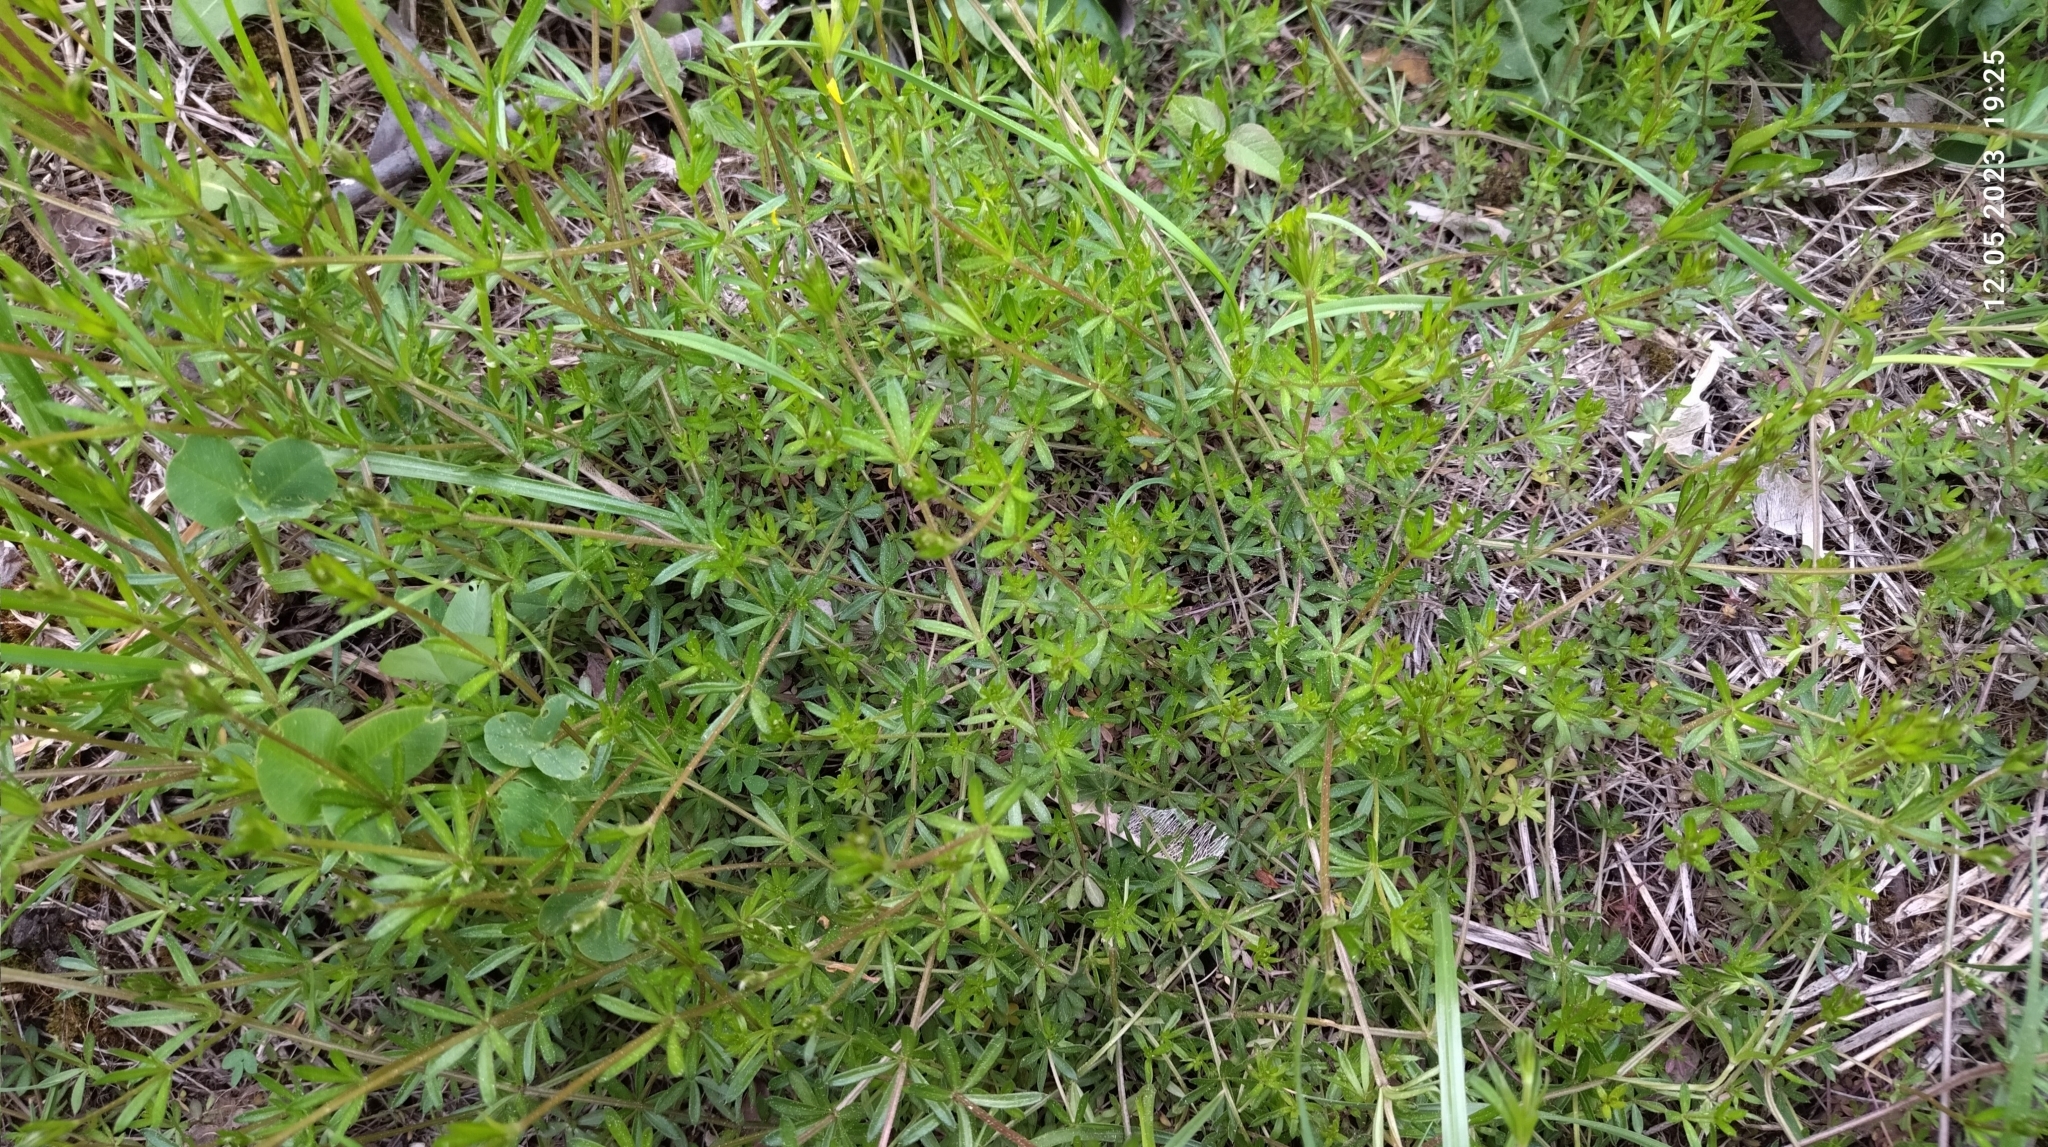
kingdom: Plantae
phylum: Tracheophyta
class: Magnoliopsida
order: Gentianales
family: Rubiaceae
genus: Galium
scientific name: Galium mollugo
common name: Hedge bedstraw
